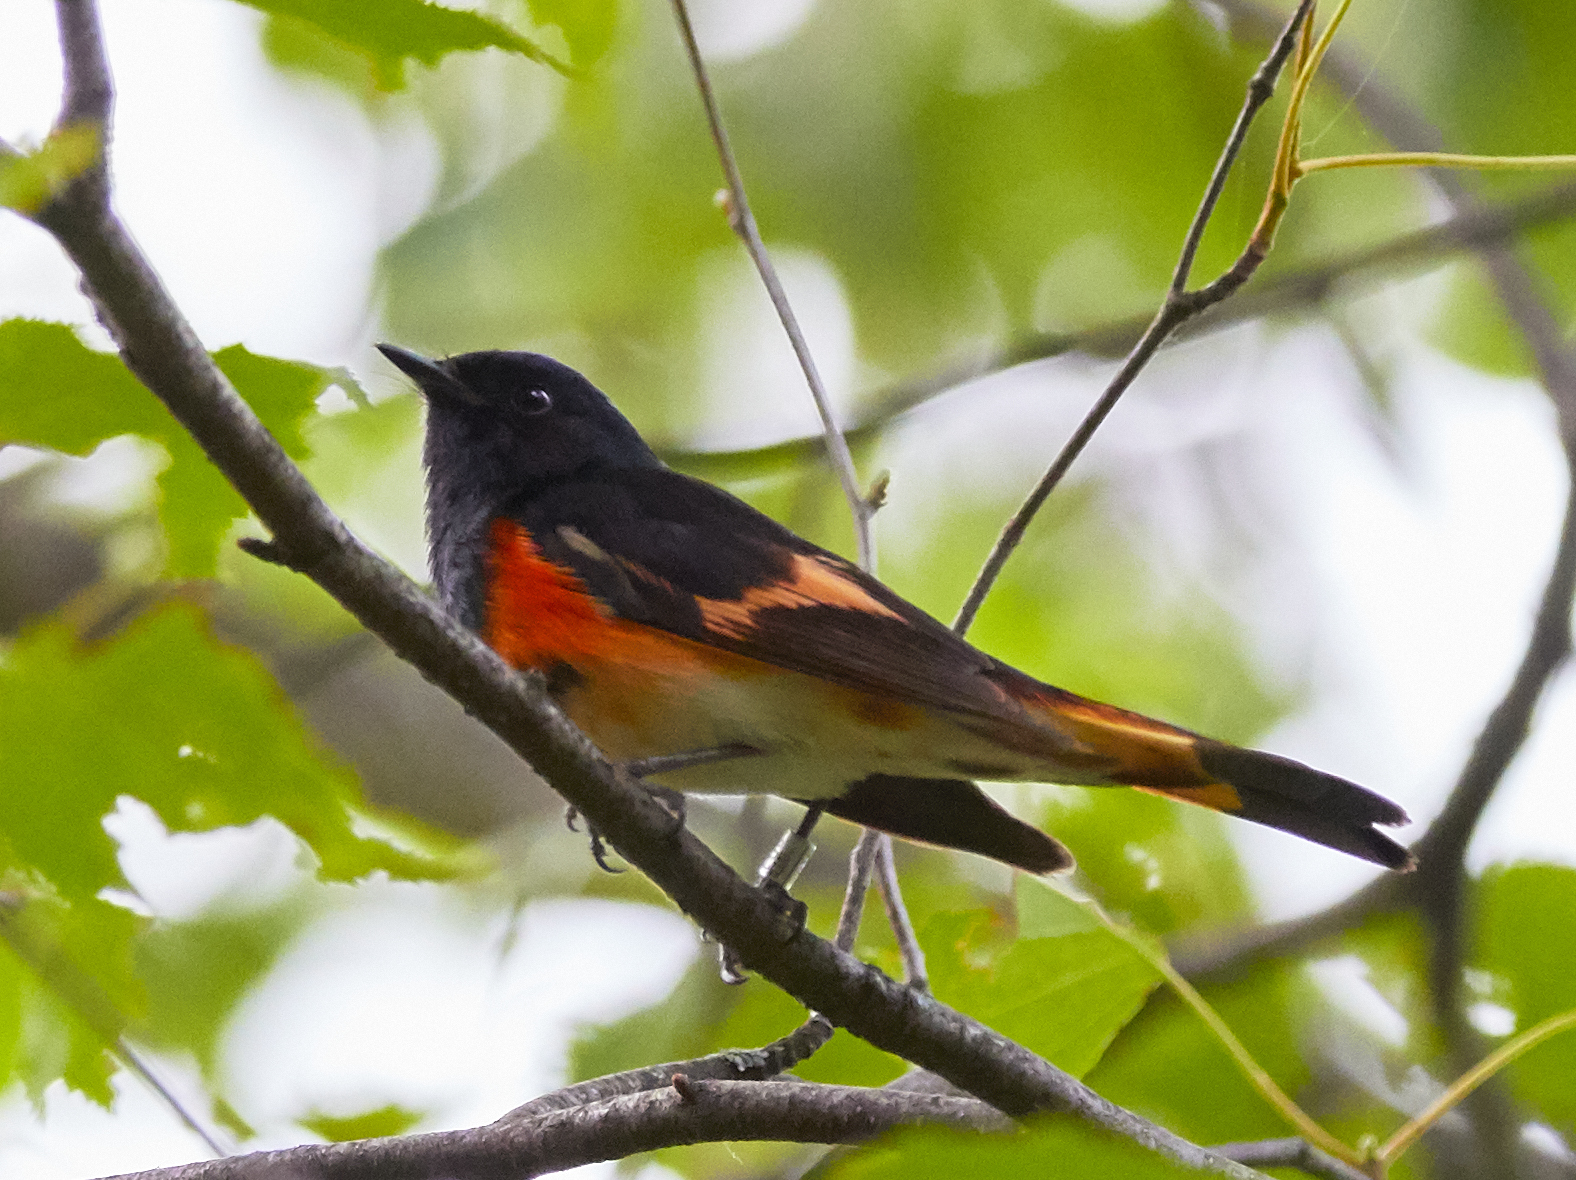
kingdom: Animalia
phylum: Chordata
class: Aves
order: Passeriformes
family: Parulidae
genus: Setophaga
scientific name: Setophaga ruticilla
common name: American redstart
